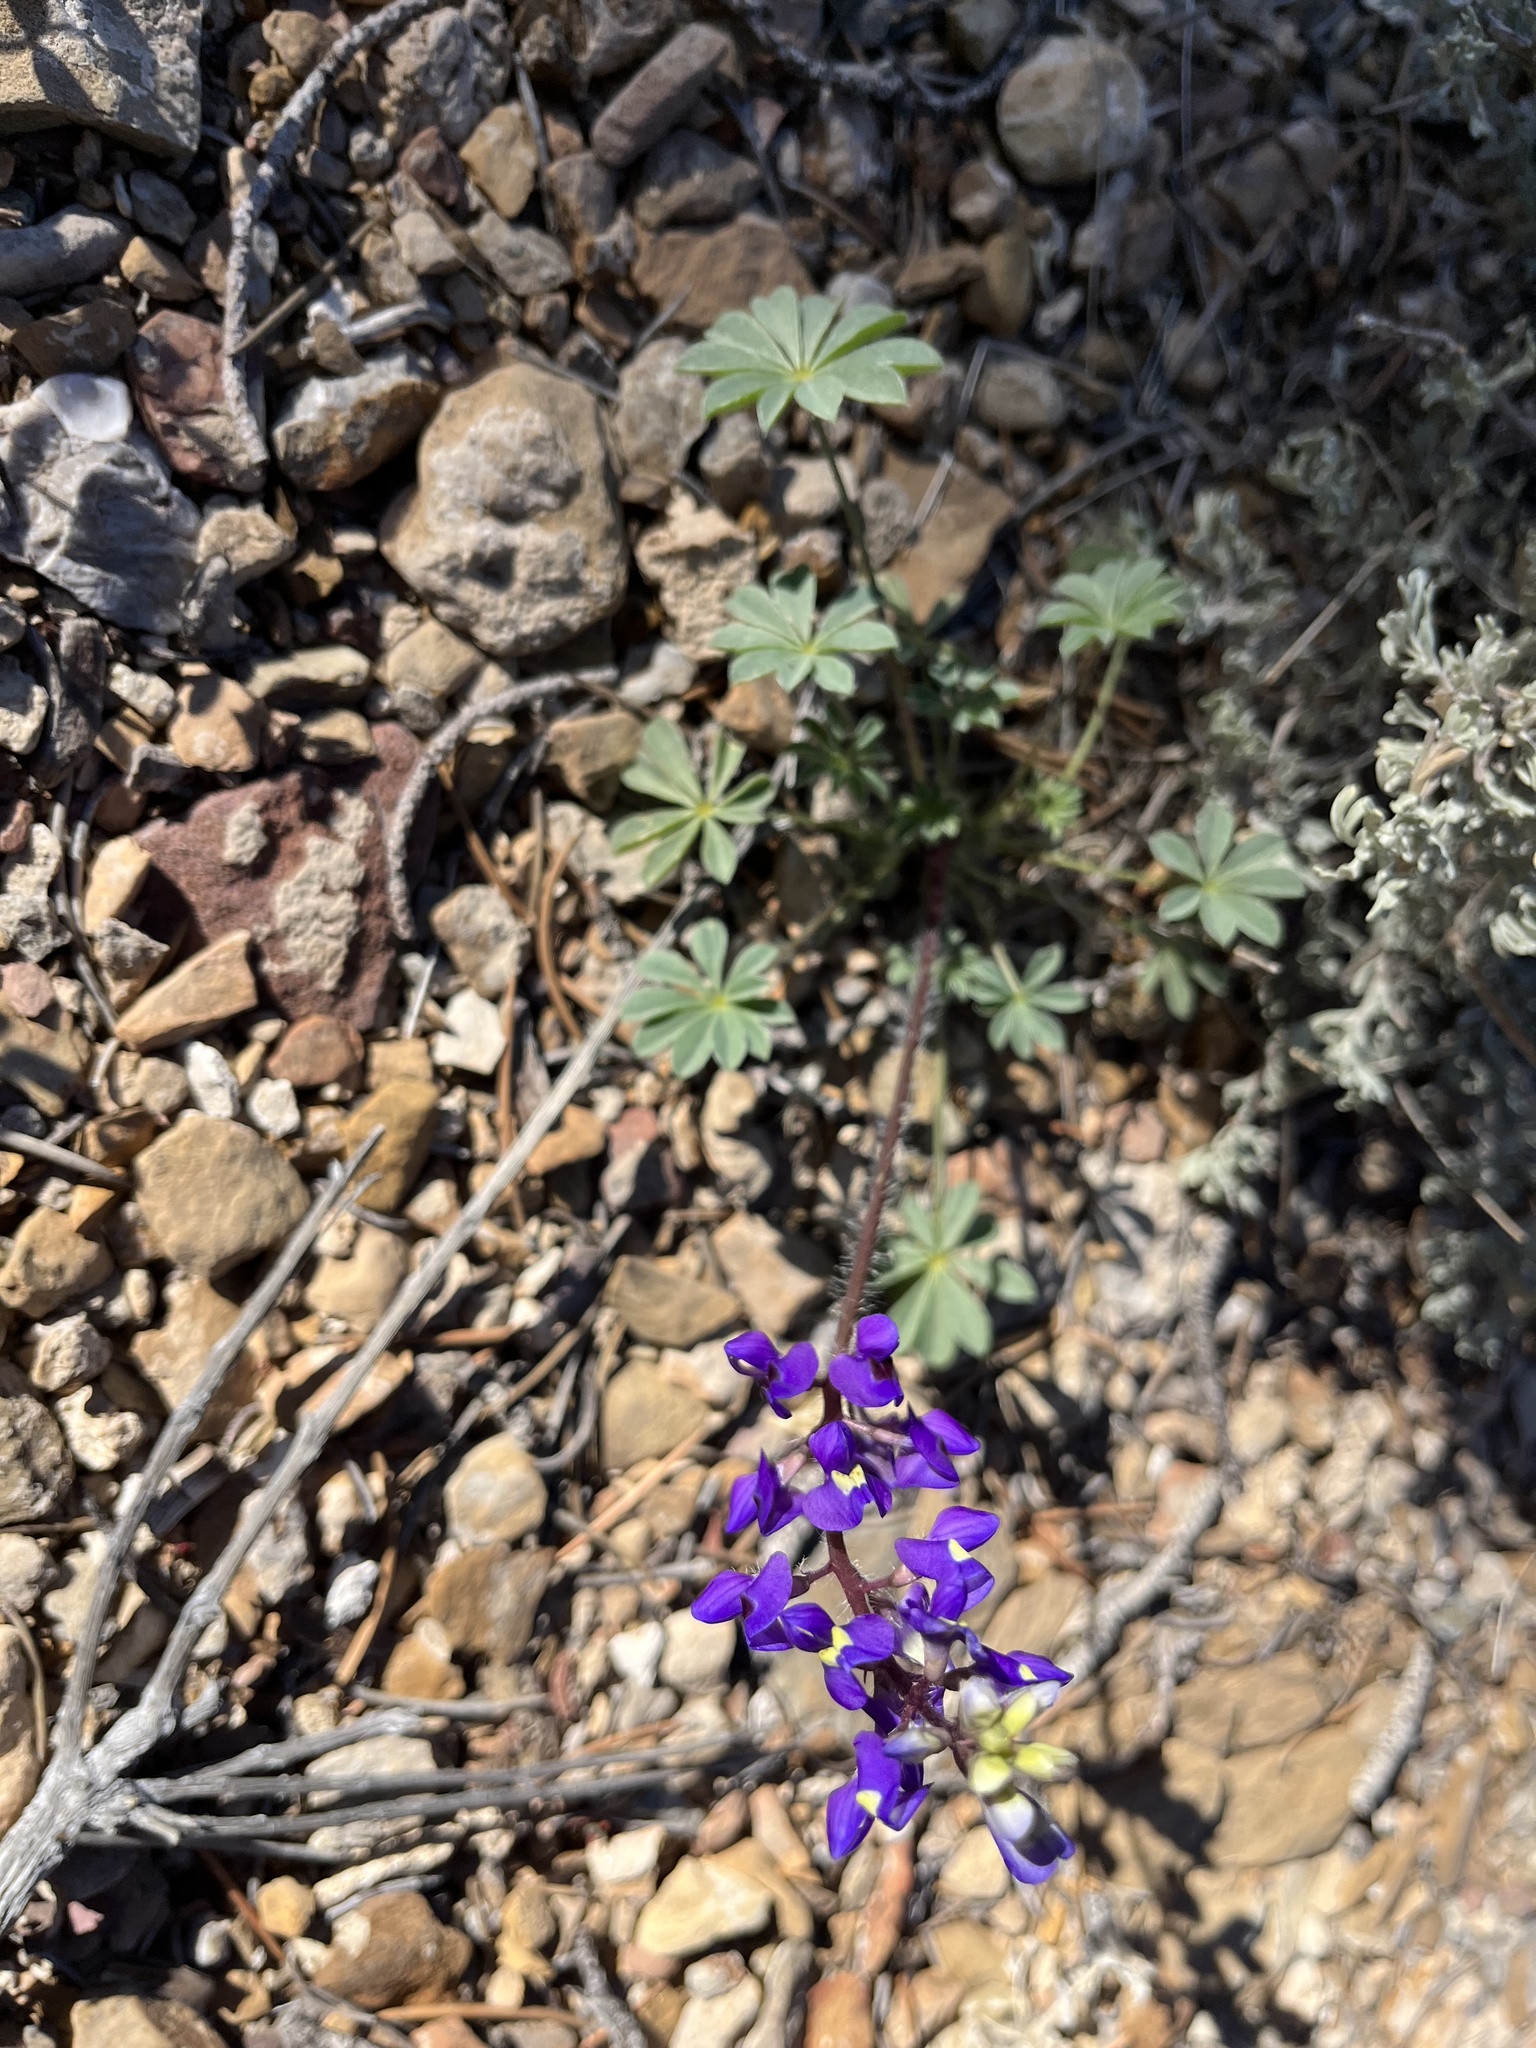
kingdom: Plantae
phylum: Tracheophyta
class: Magnoliopsida
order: Fabales
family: Fabaceae
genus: Lupinus
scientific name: Lupinus flavoculatus
